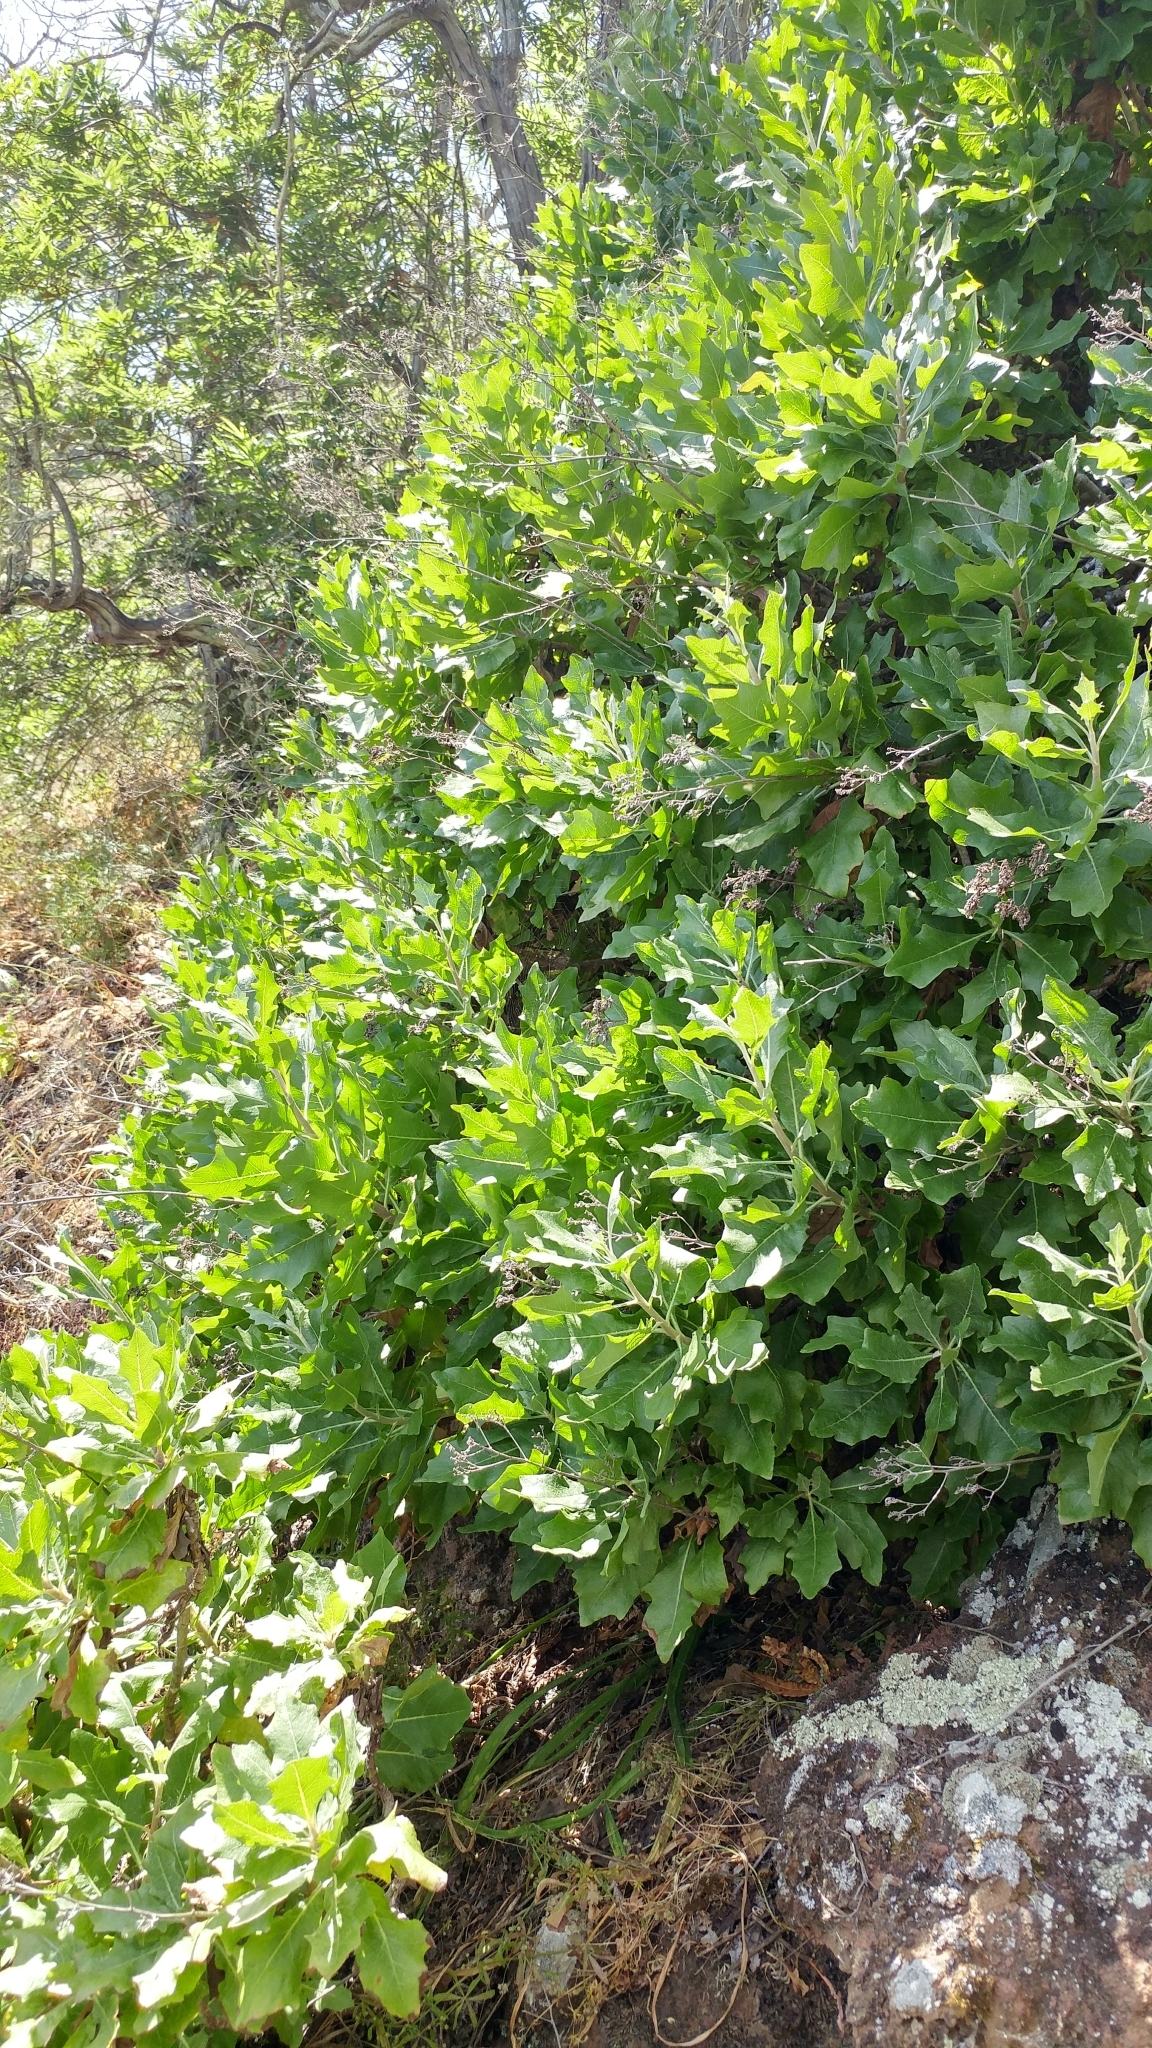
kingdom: Plantae
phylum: Tracheophyta
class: Magnoliopsida
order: Asterales
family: Asteraceae
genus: Munzothamnus
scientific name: Munzothamnus blairii
